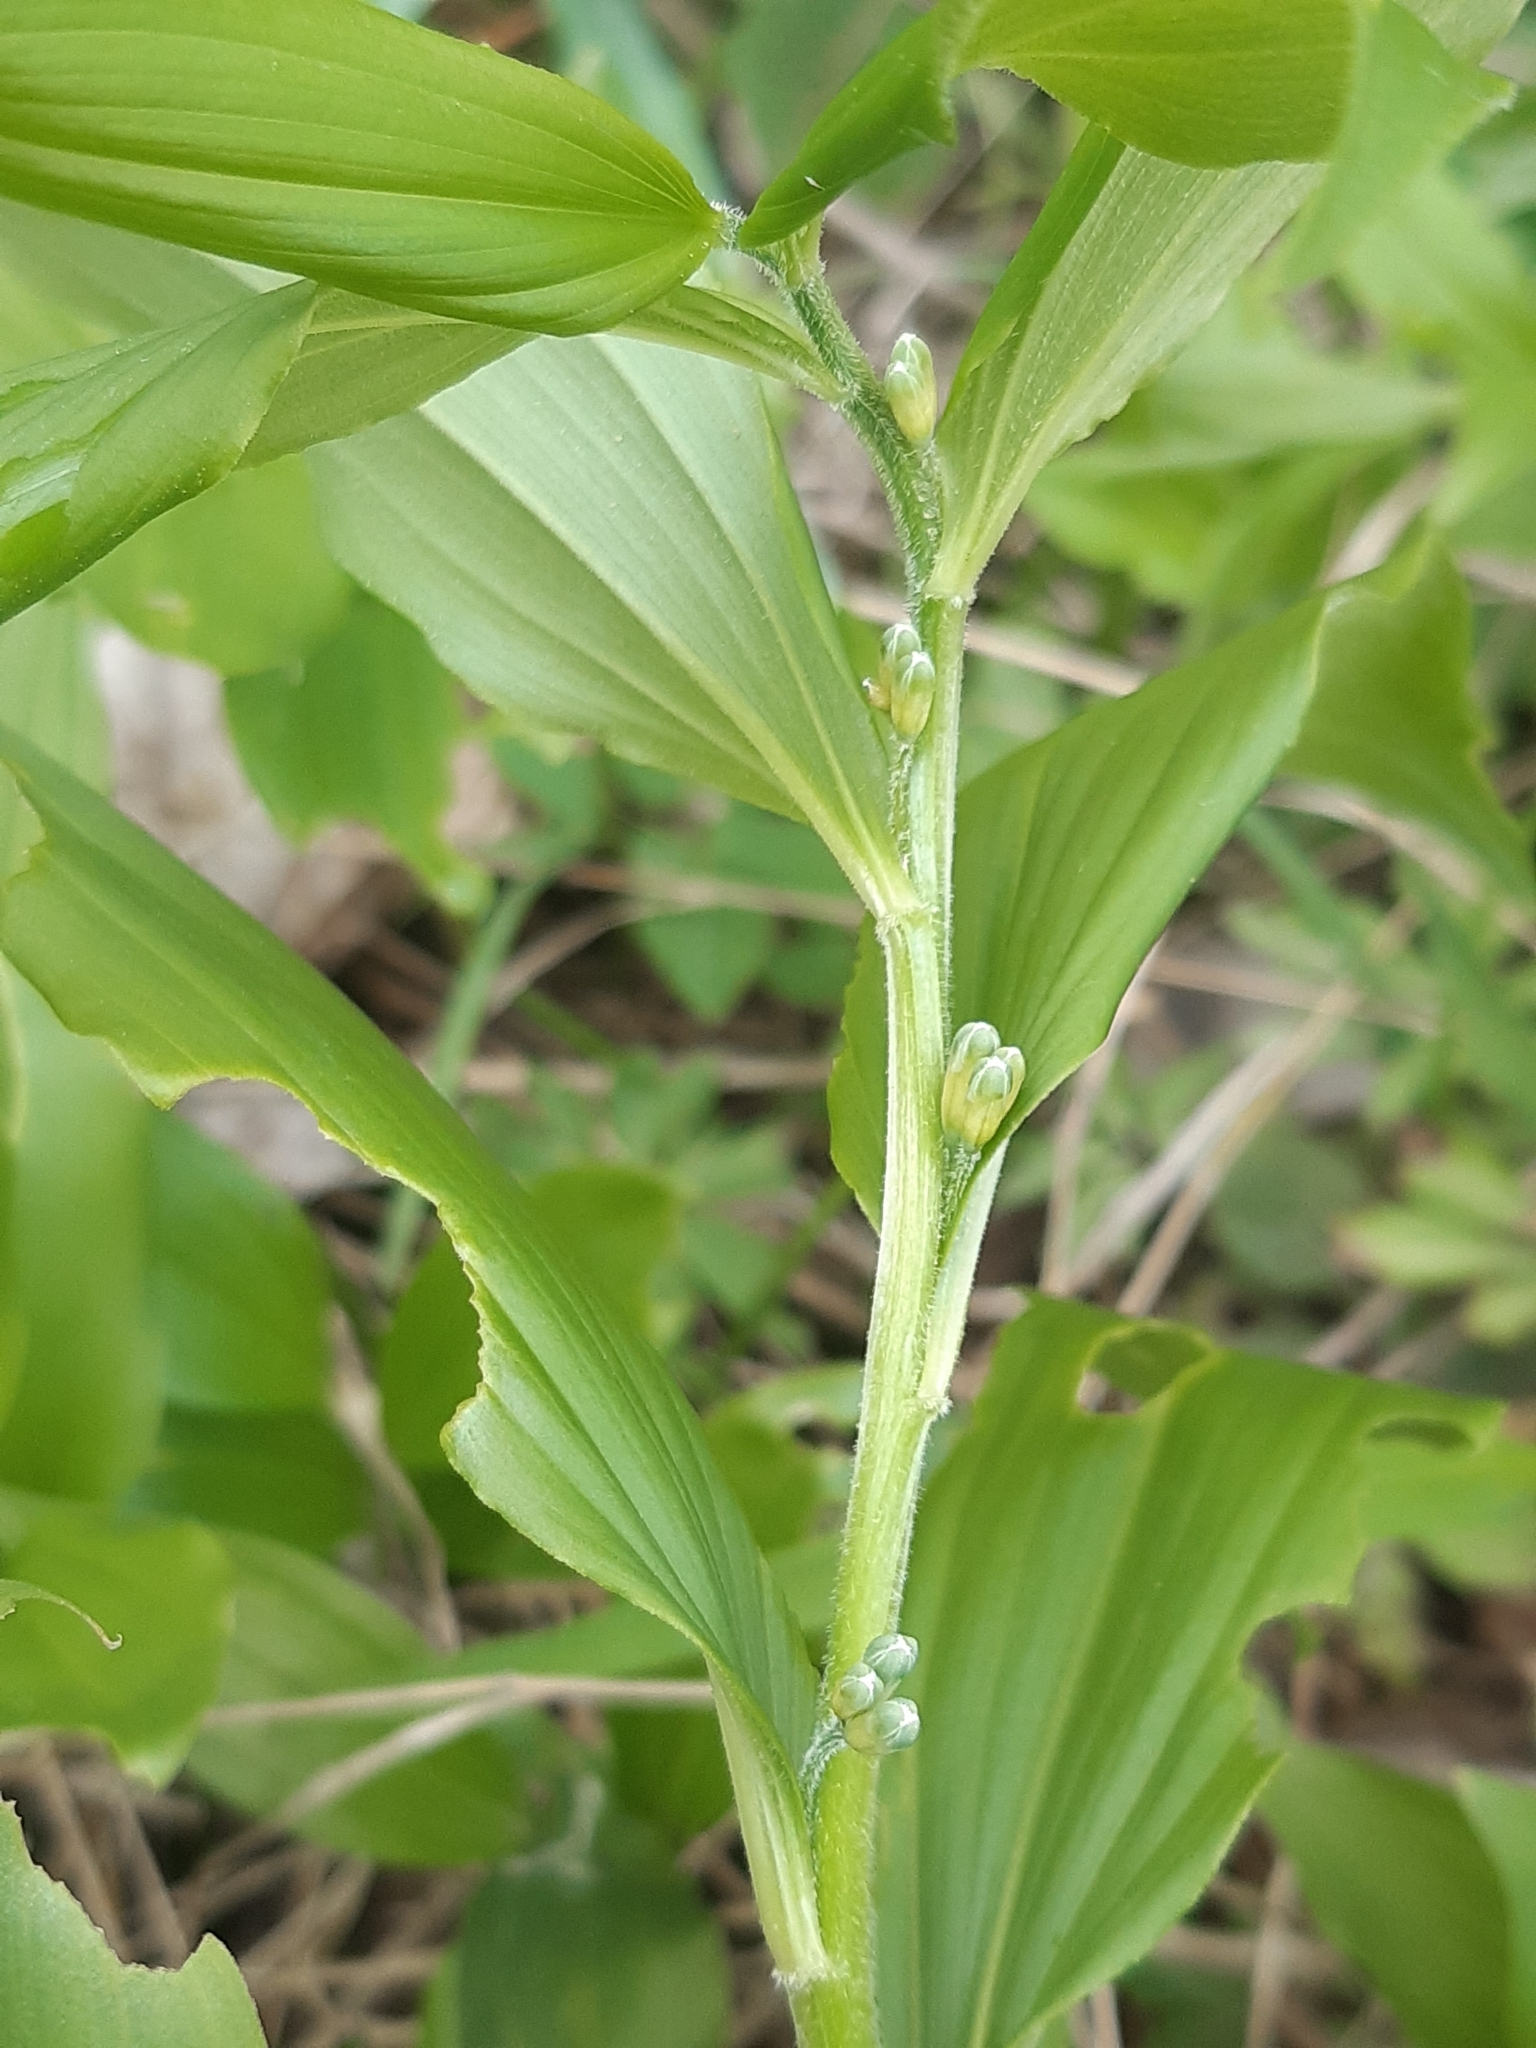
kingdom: Plantae
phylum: Tracheophyta
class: Liliopsida
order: Asparagales
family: Asparagaceae
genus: Polygonatum
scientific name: Polygonatum latifolium
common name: Broadleaf solomon's seal
